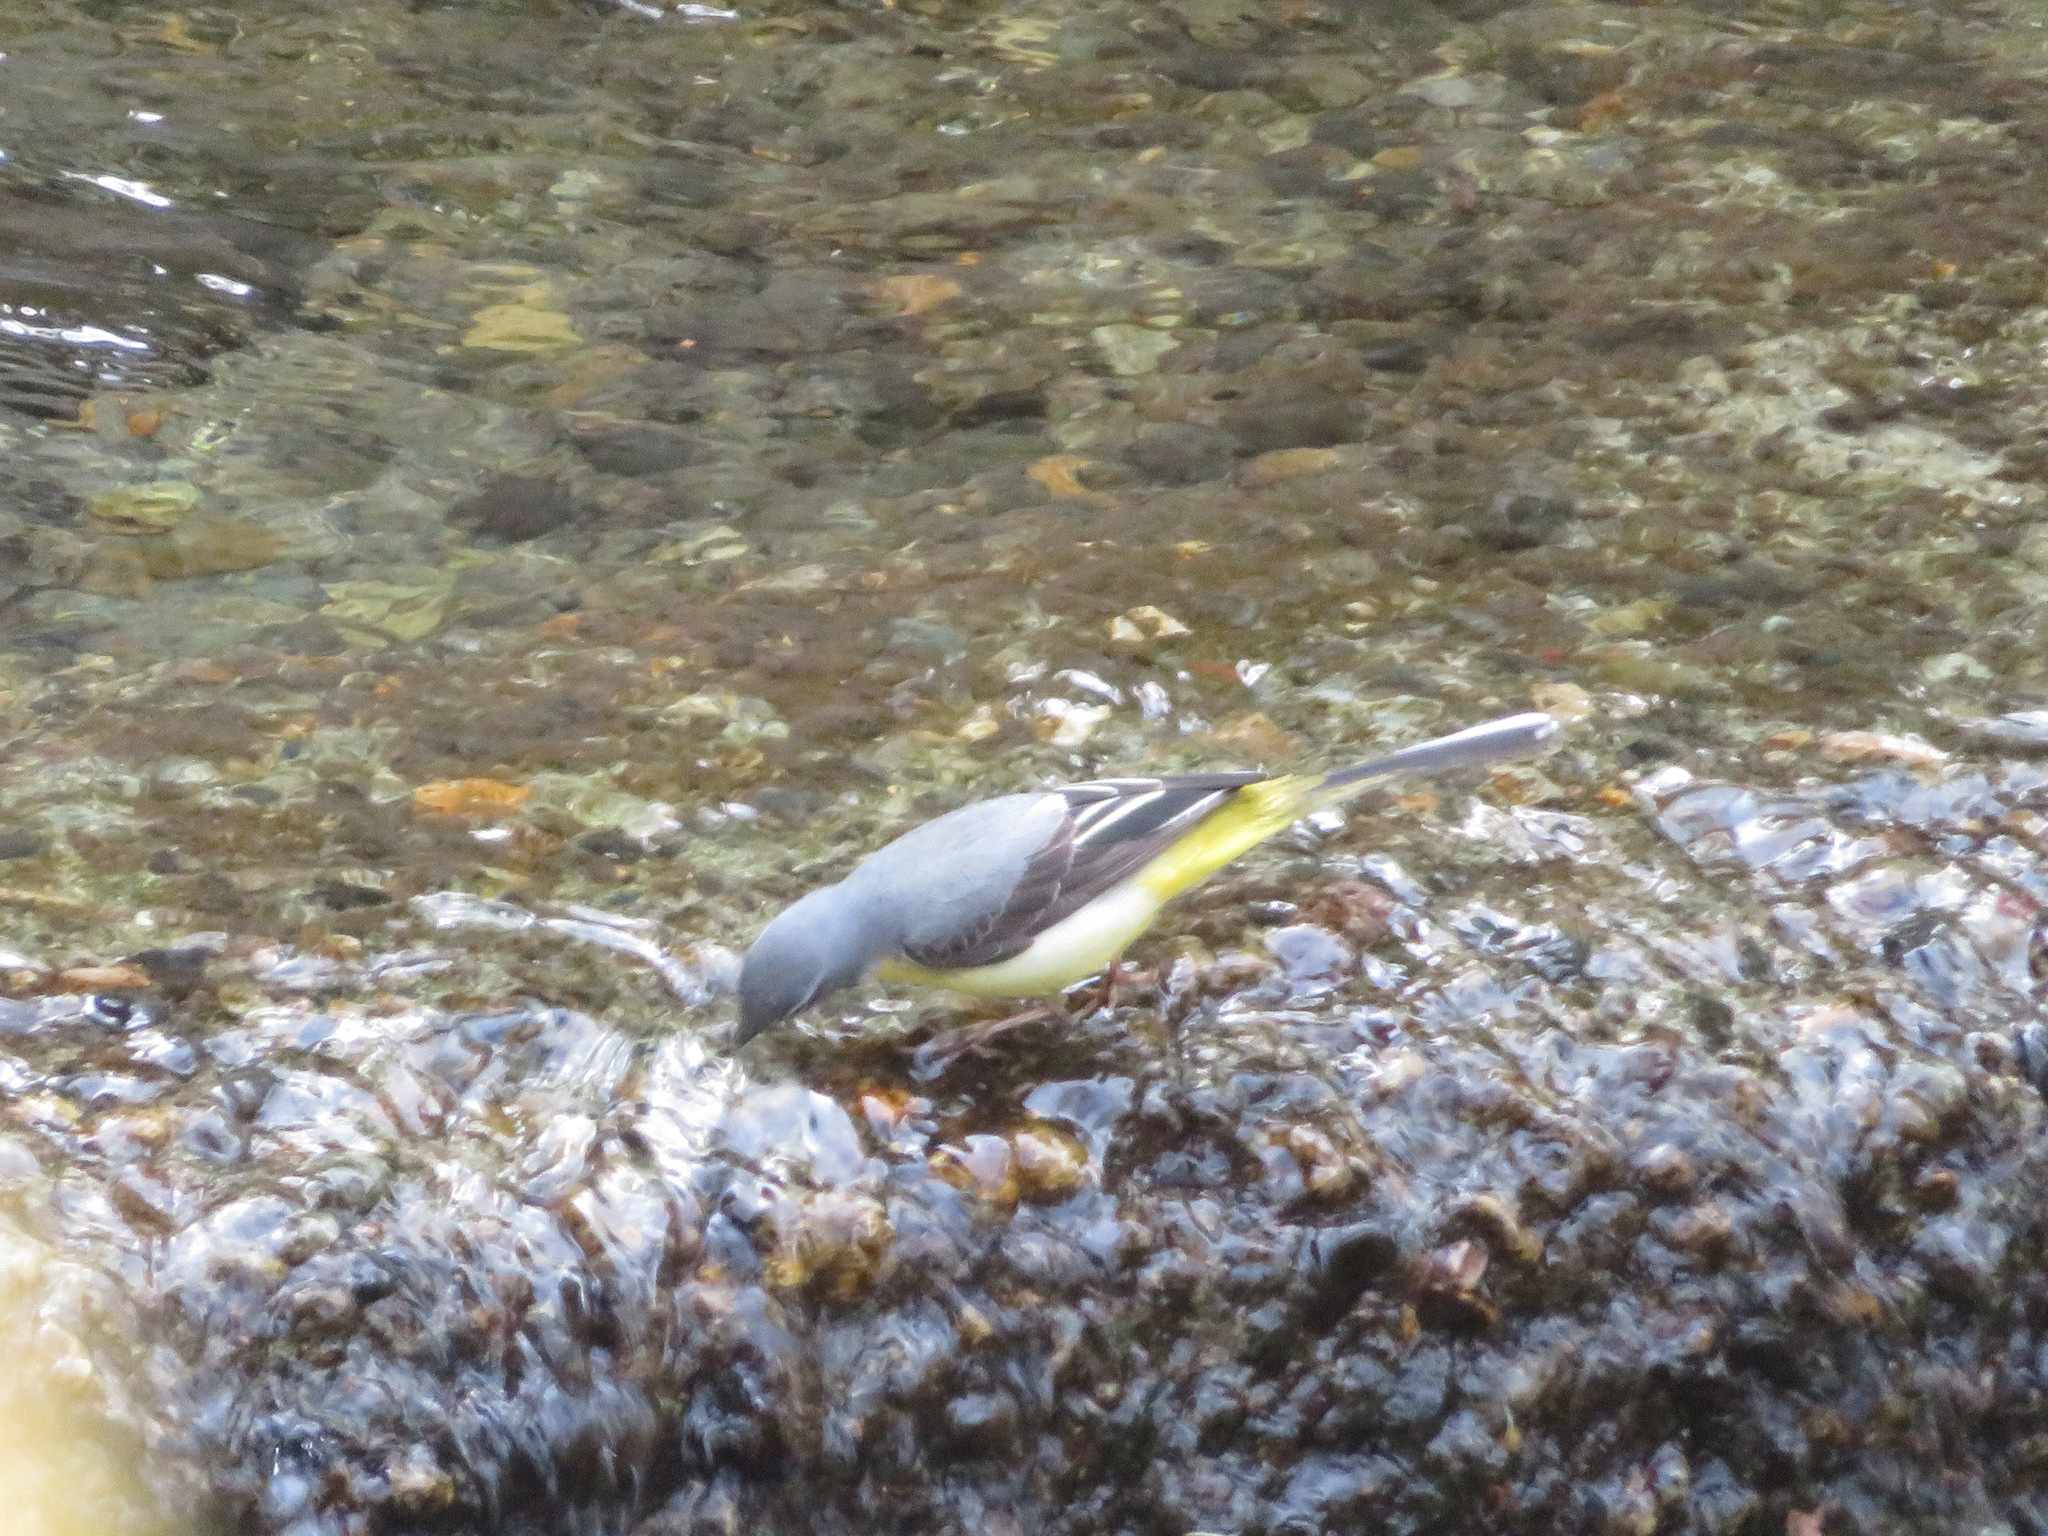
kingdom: Animalia
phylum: Chordata
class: Aves
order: Passeriformes
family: Motacillidae
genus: Motacilla
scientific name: Motacilla cinerea
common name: Grey wagtail
